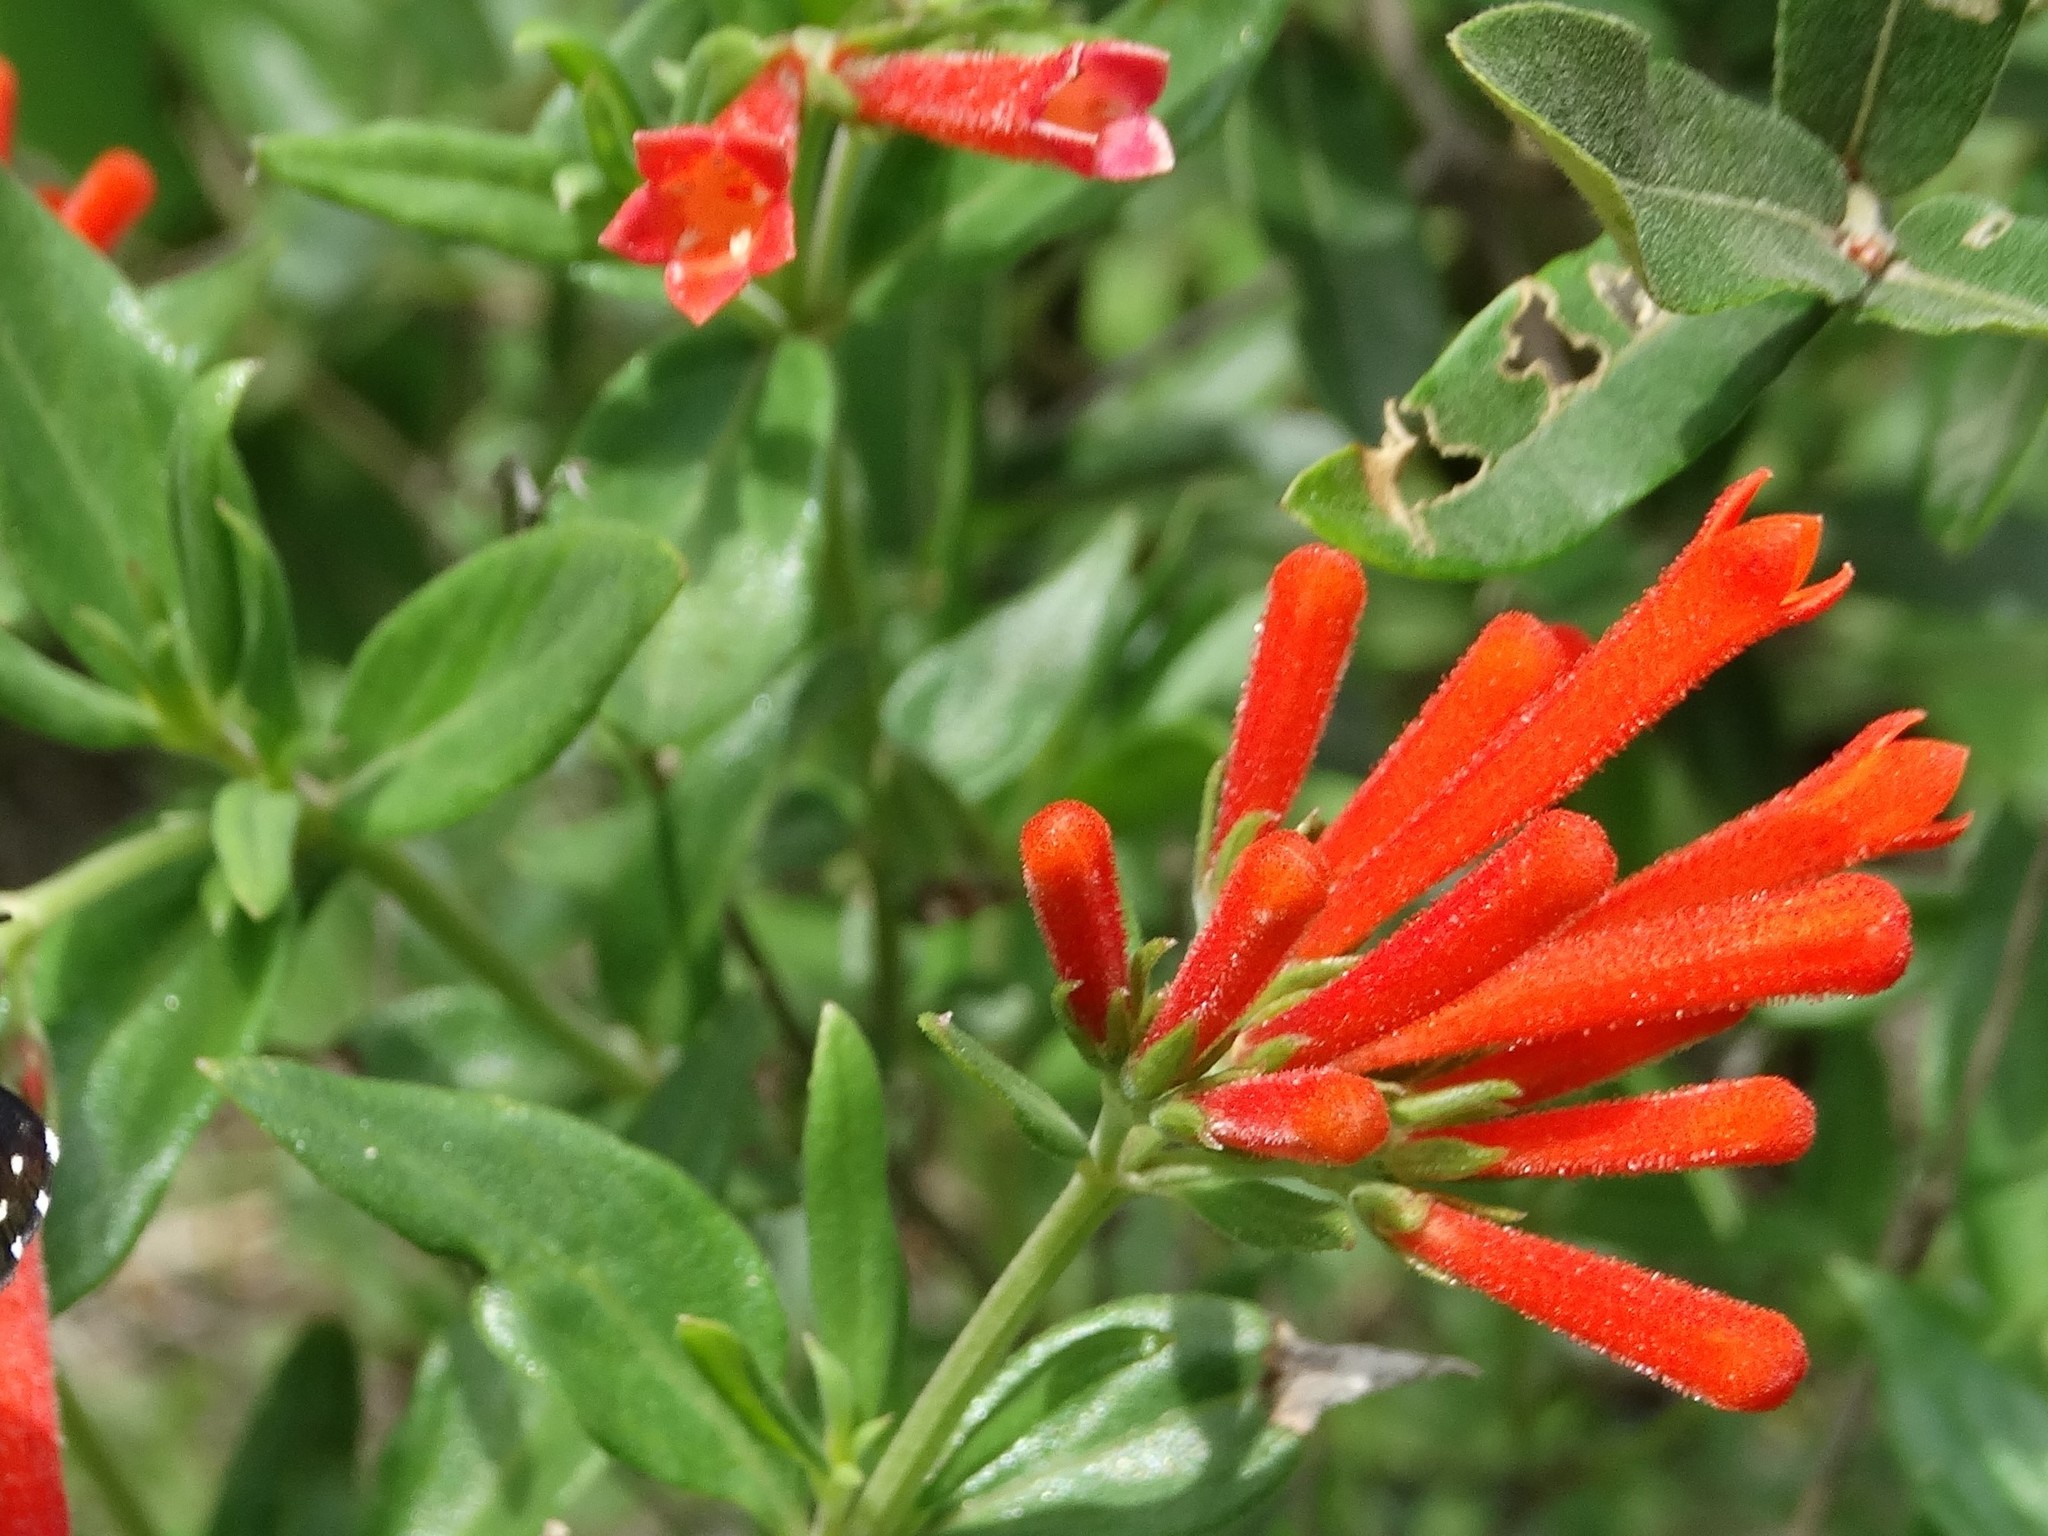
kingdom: Plantae
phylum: Tracheophyta
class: Magnoliopsida
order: Gentianales
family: Rubiaceae
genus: Bouvardia
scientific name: Bouvardia ternifolia
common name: Scarlet bouvardia
